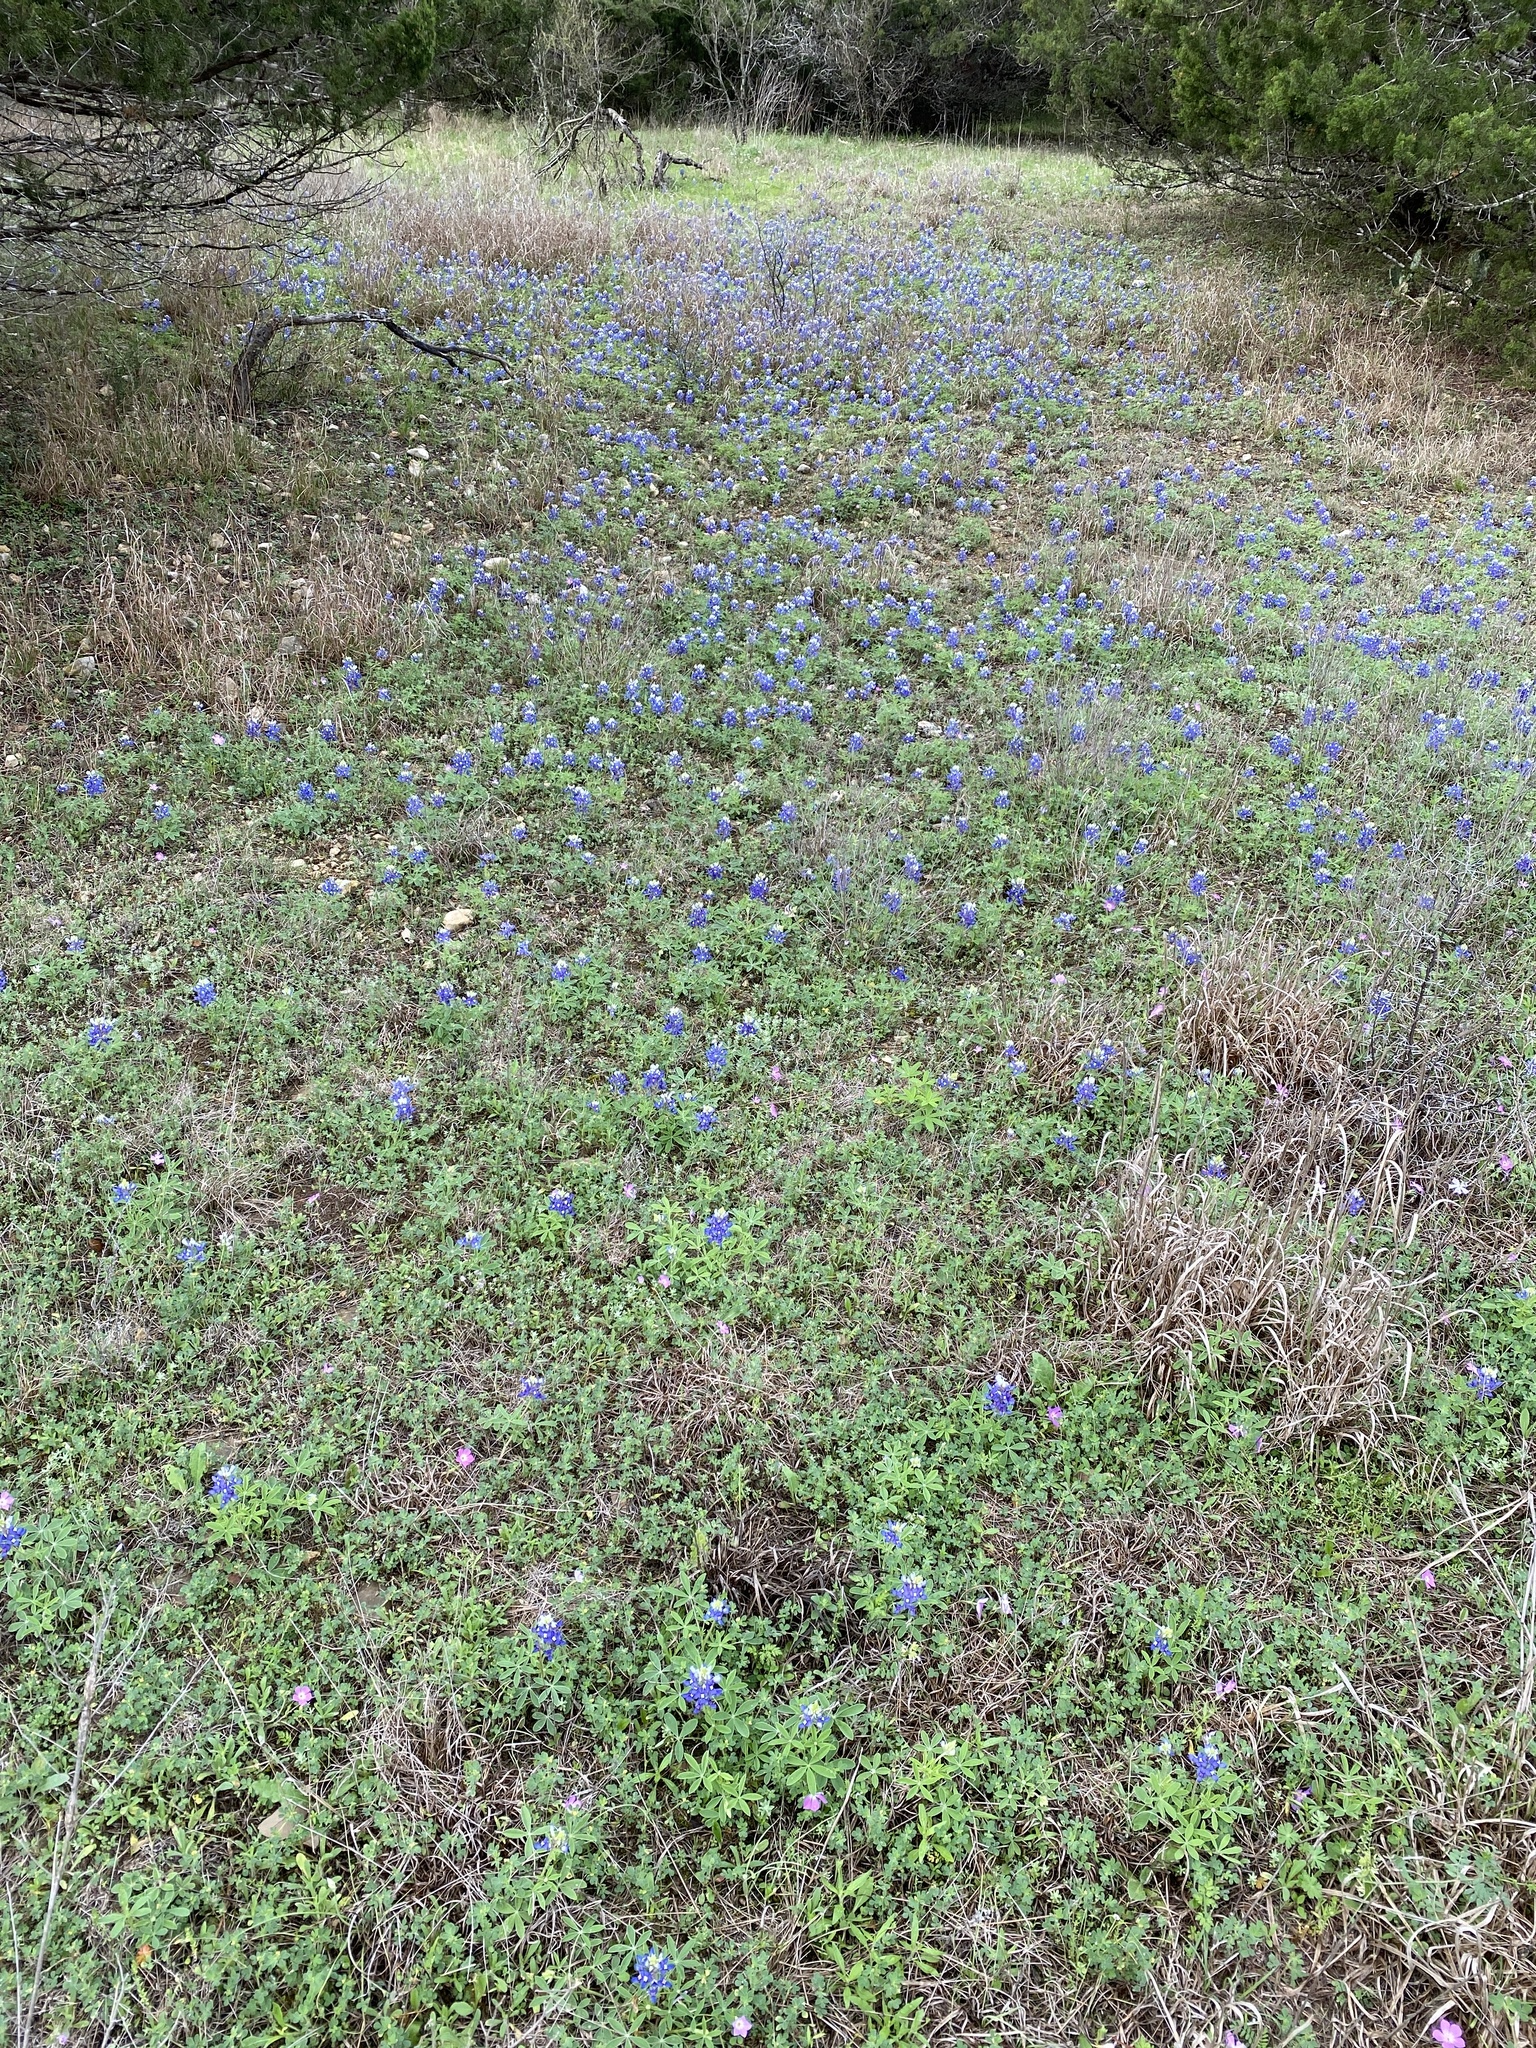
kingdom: Plantae
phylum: Tracheophyta
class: Magnoliopsida
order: Fabales
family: Fabaceae
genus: Lupinus
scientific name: Lupinus texensis
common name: Texas bluebonnet
